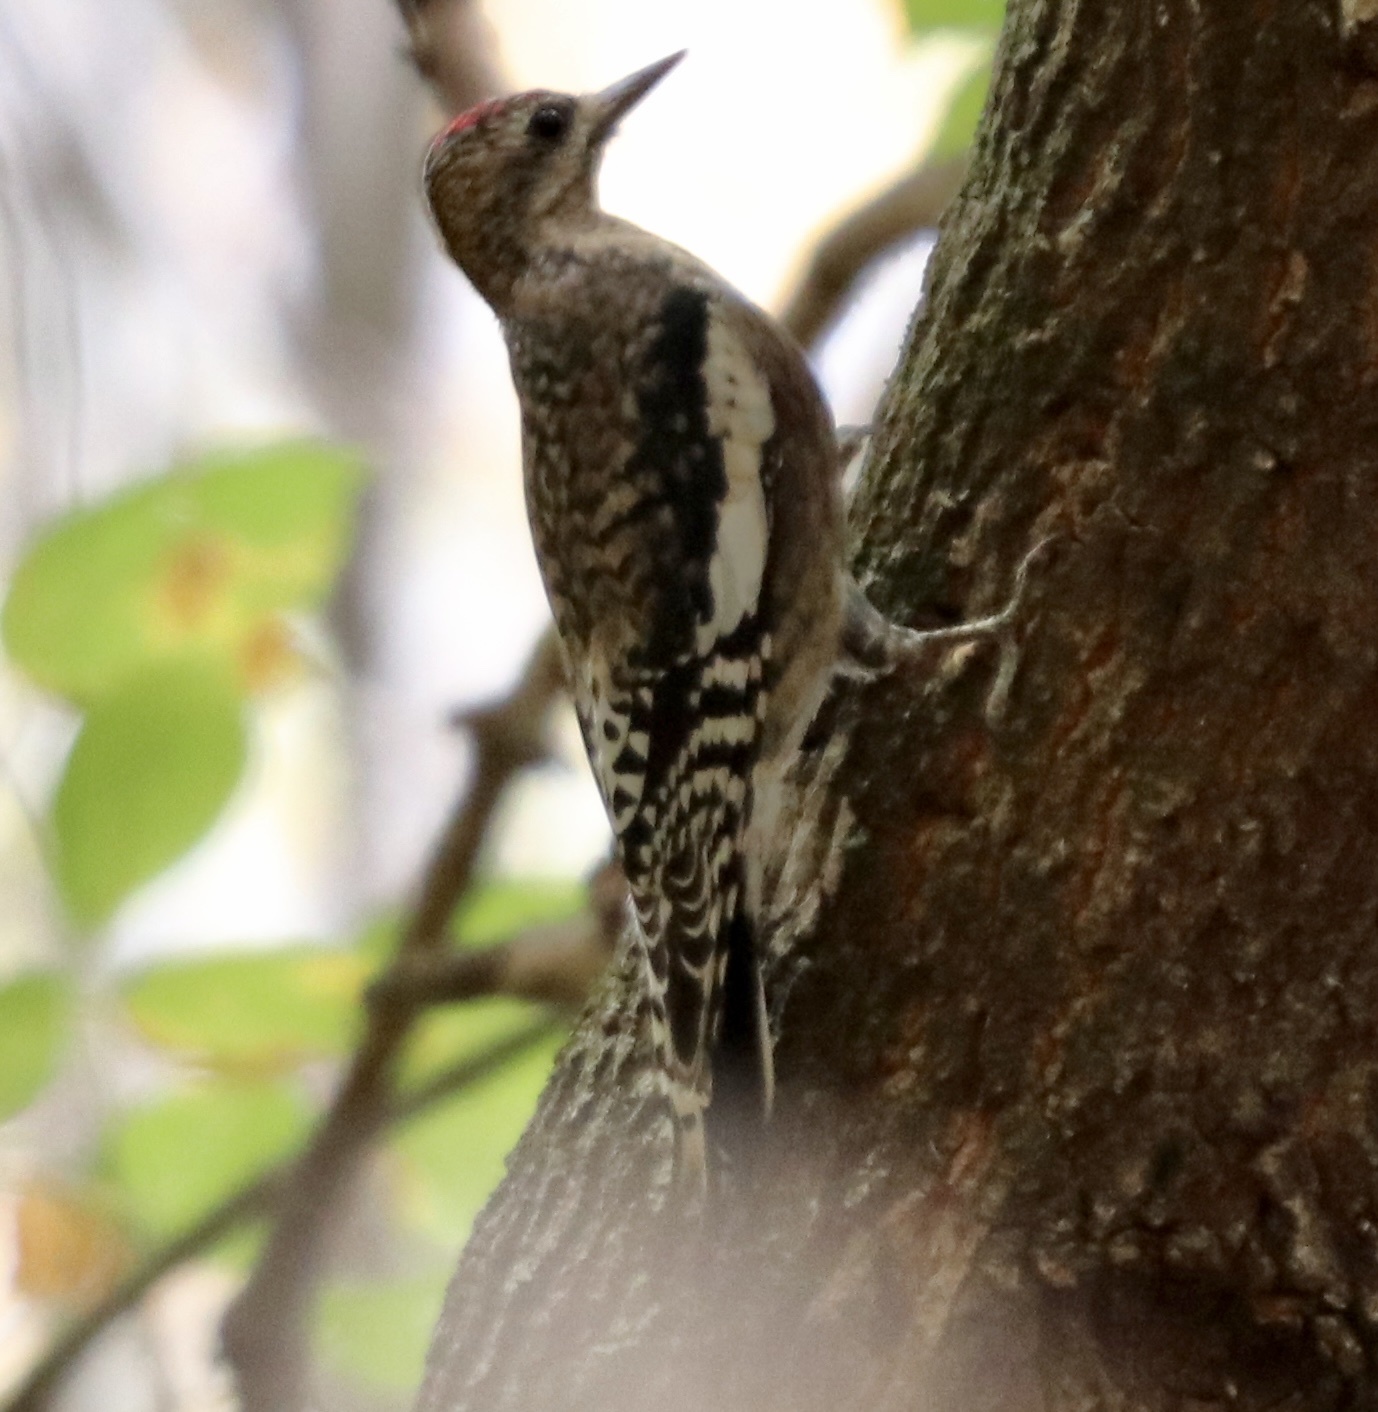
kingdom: Animalia
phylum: Chordata
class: Aves
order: Piciformes
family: Picidae
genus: Sphyrapicus
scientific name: Sphyrapicus varius
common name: Yellow-bellied sapsucker
